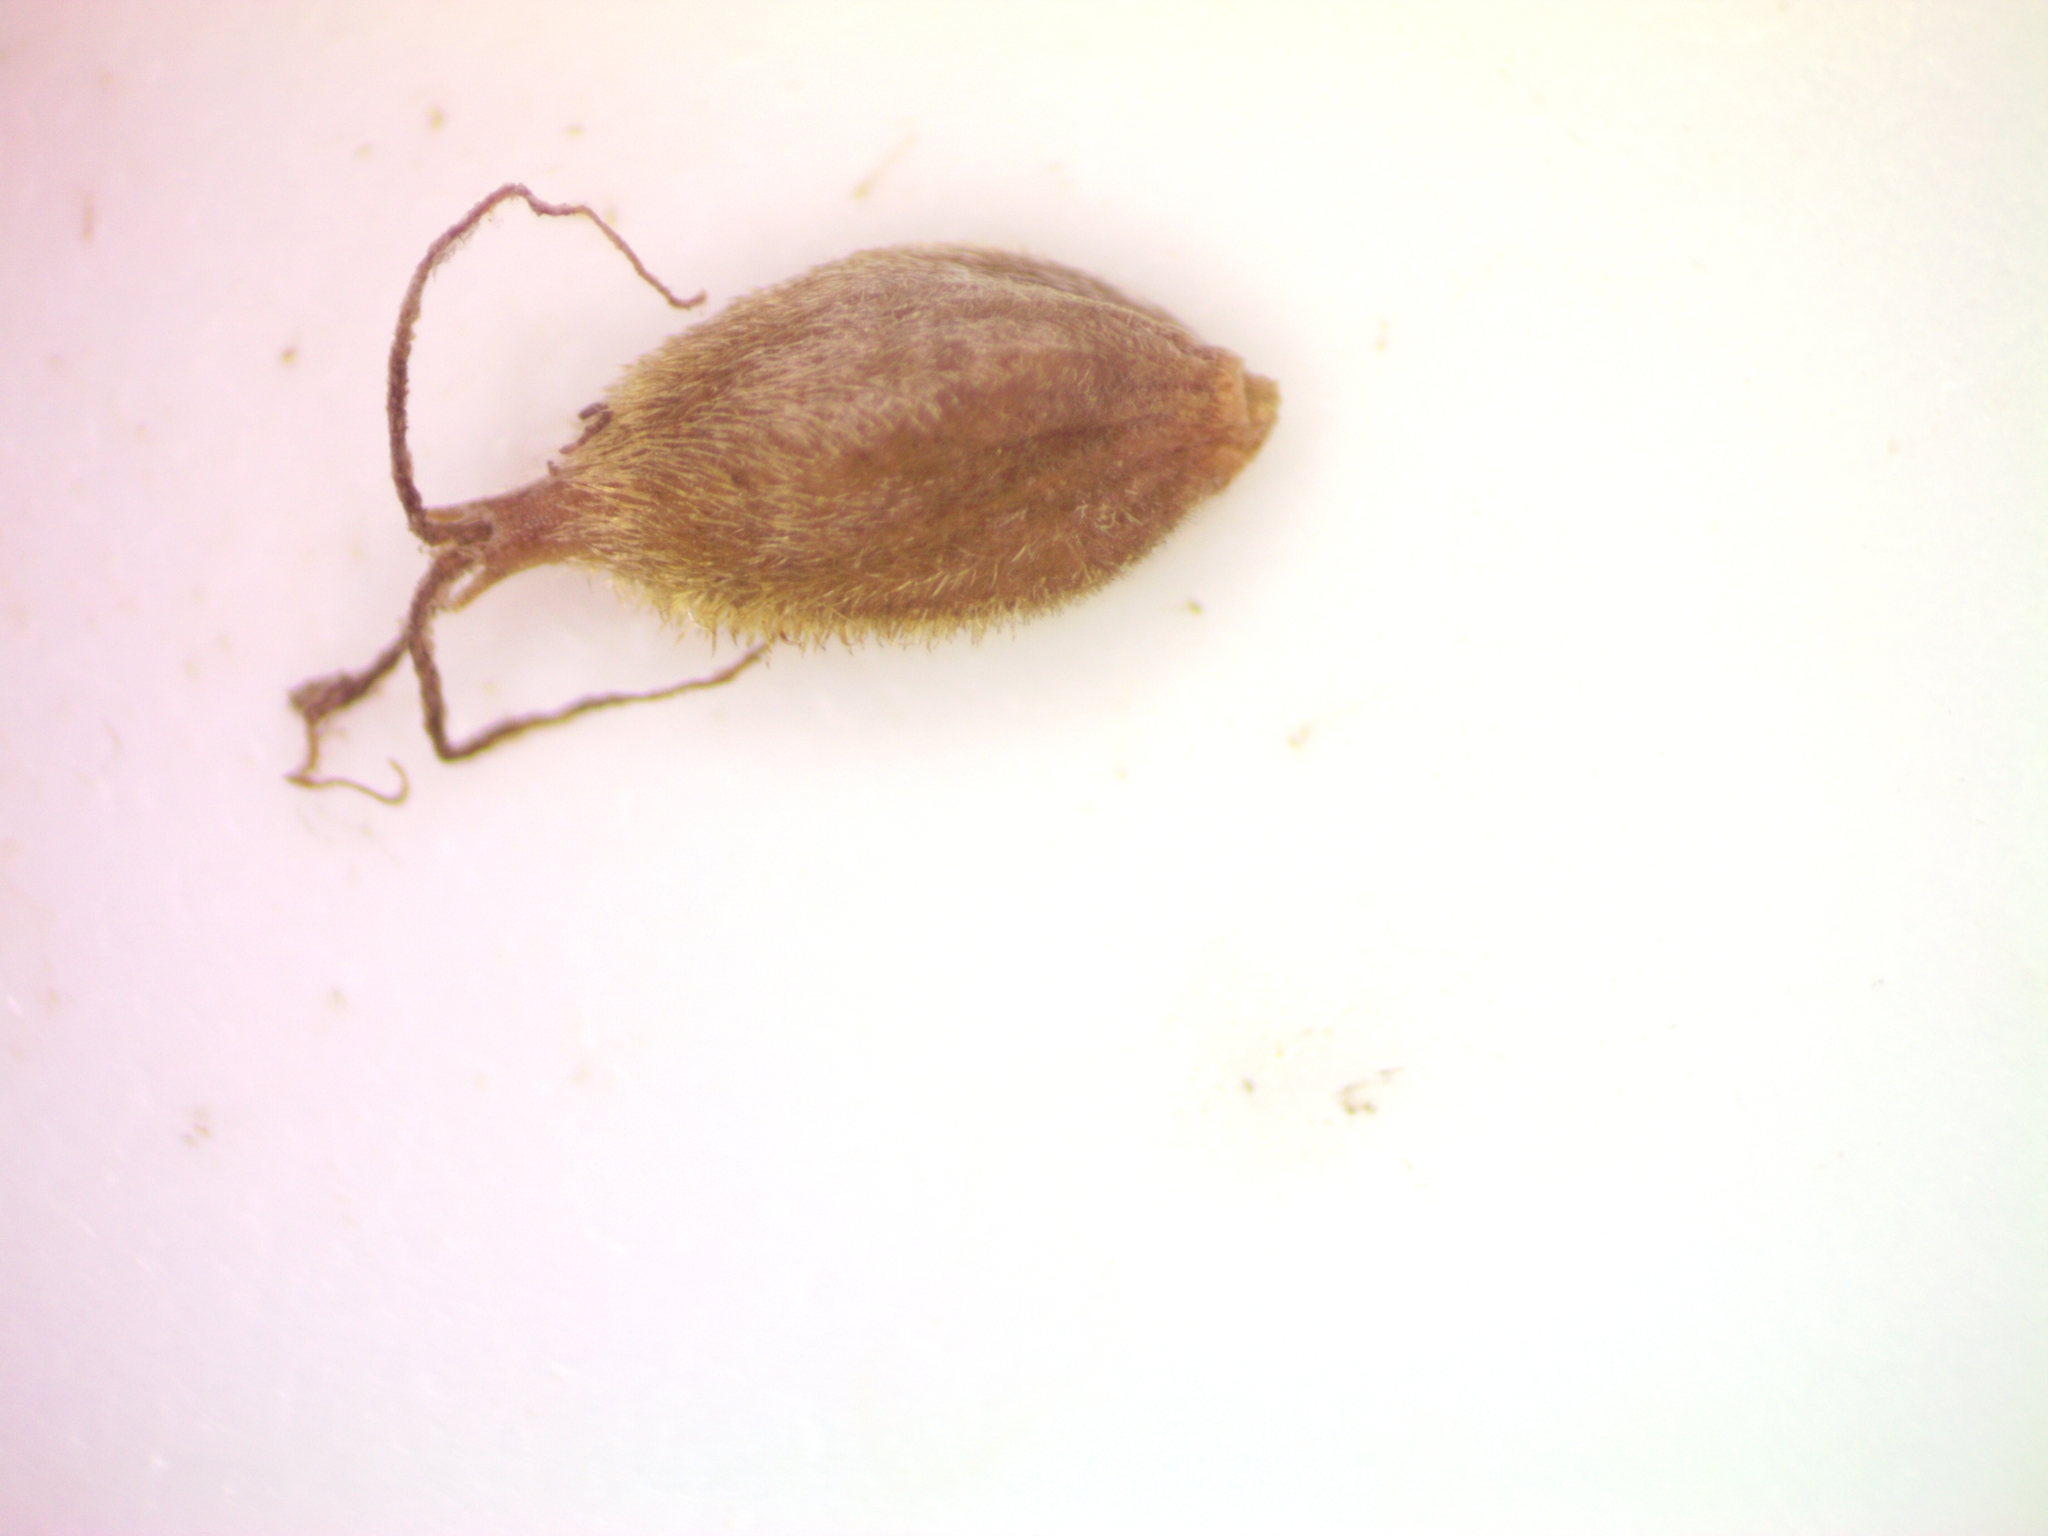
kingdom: Plantae
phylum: Tracheophyta
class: Liliopsida
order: Poales
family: Cyperaceae
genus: Carex
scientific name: Carex lasiocarpa
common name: Slender sedge
